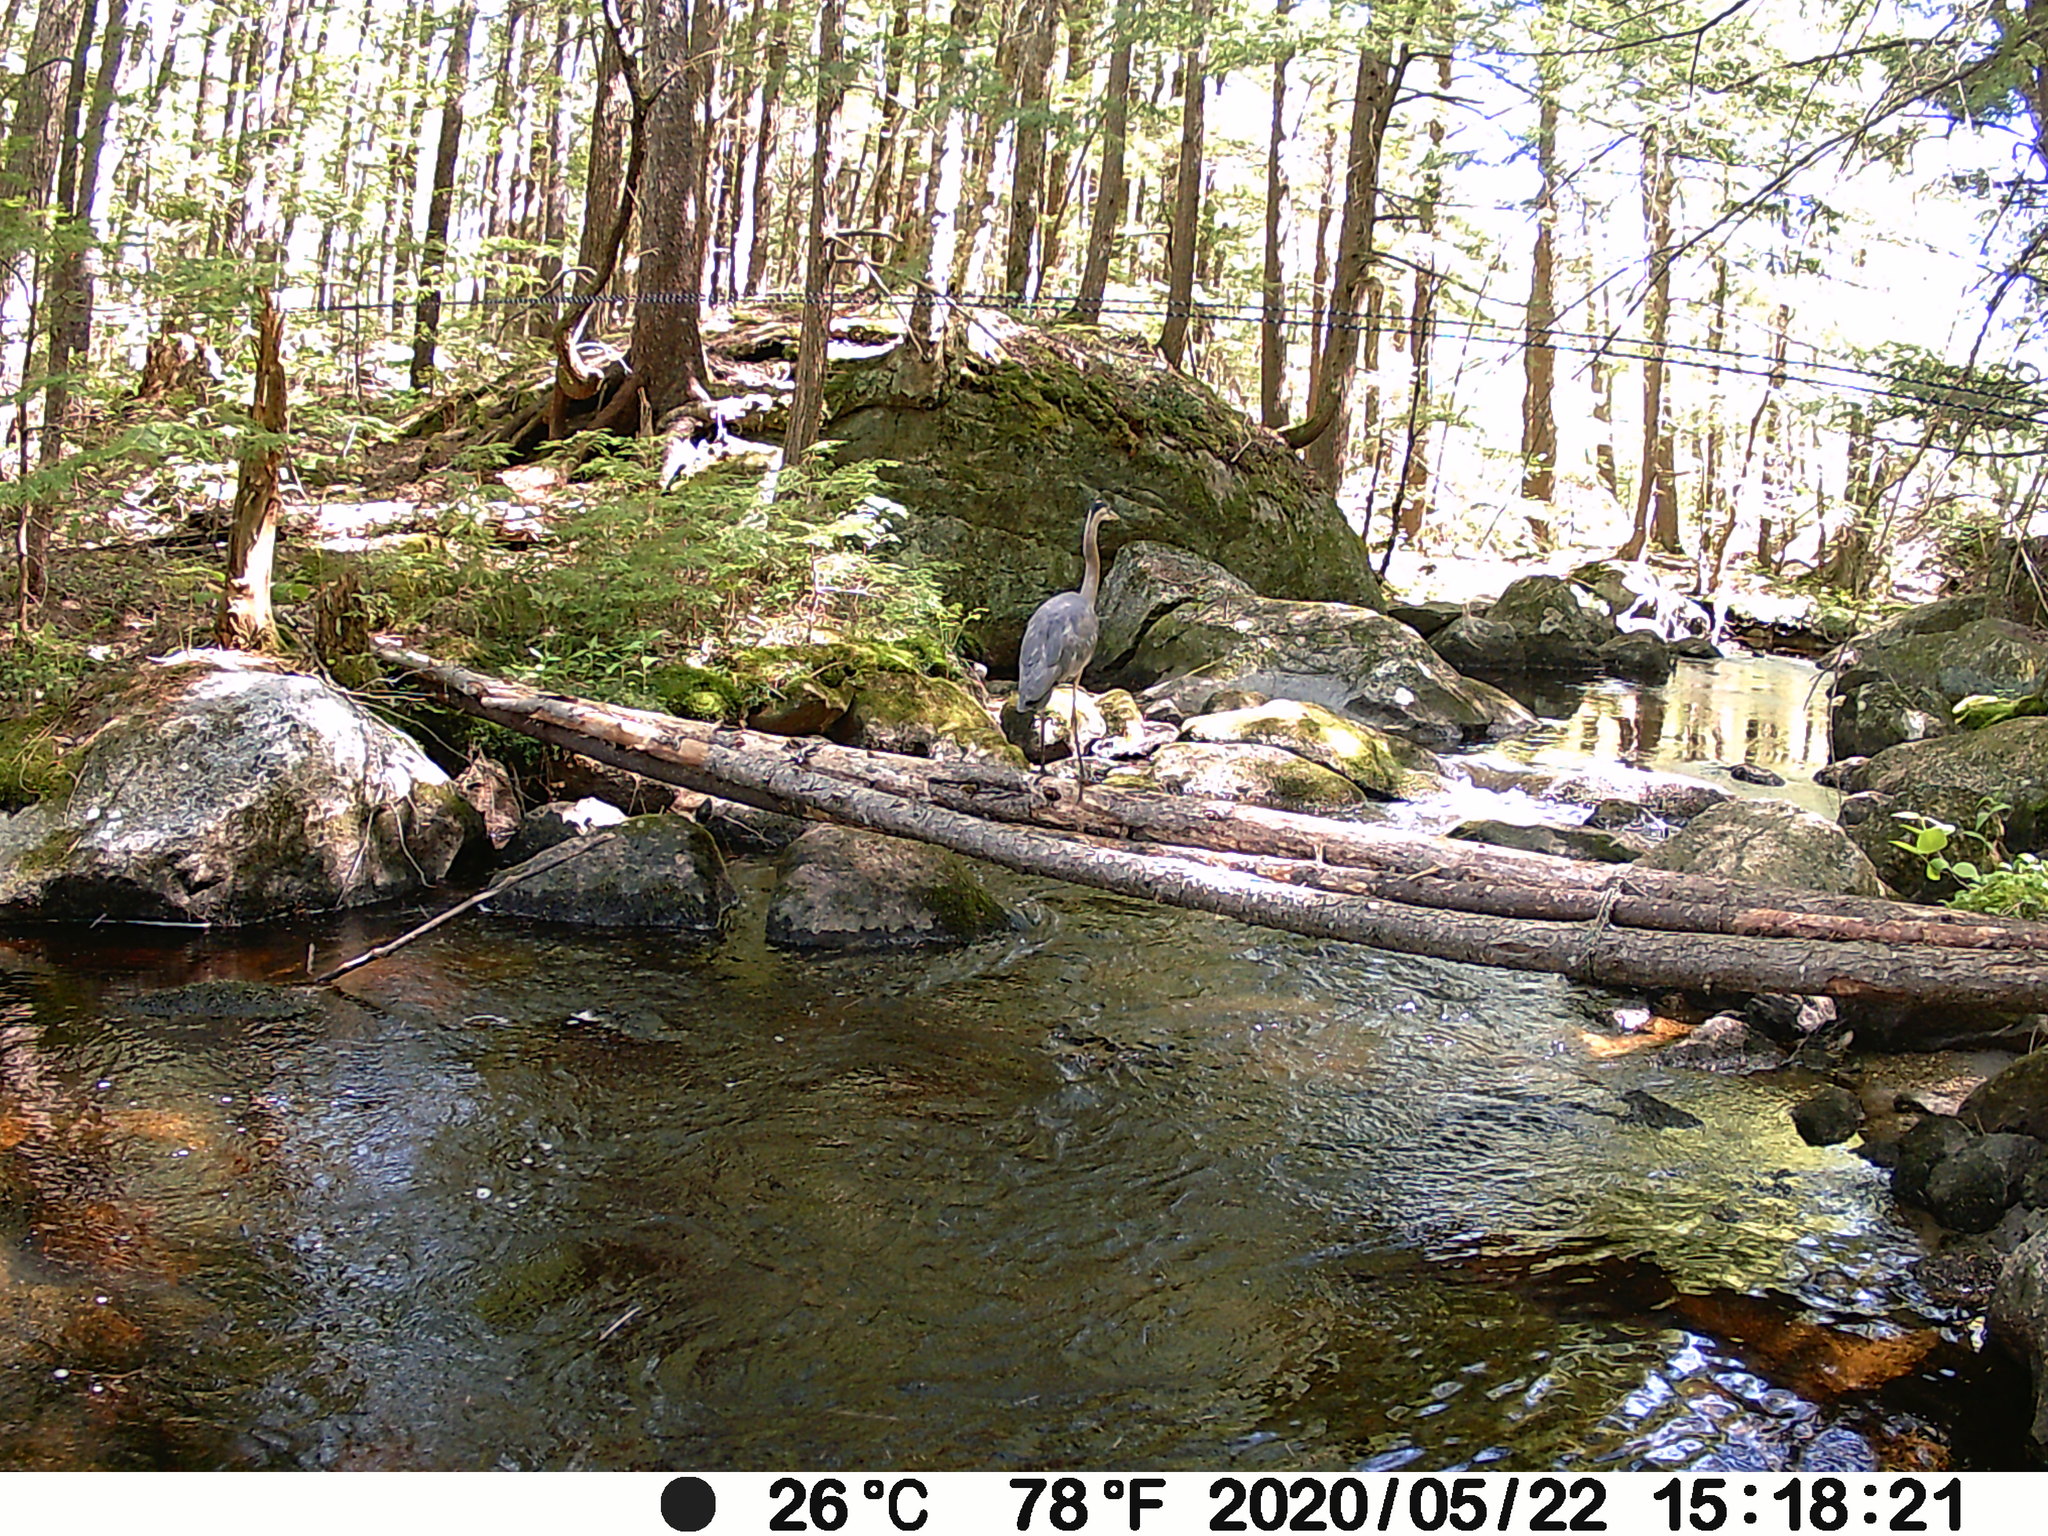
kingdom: Animalia
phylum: Chordata
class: Aves
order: Pelecaniformes
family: Ardeidae
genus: Ardea
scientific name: Ardea herodias
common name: Great blue heron
